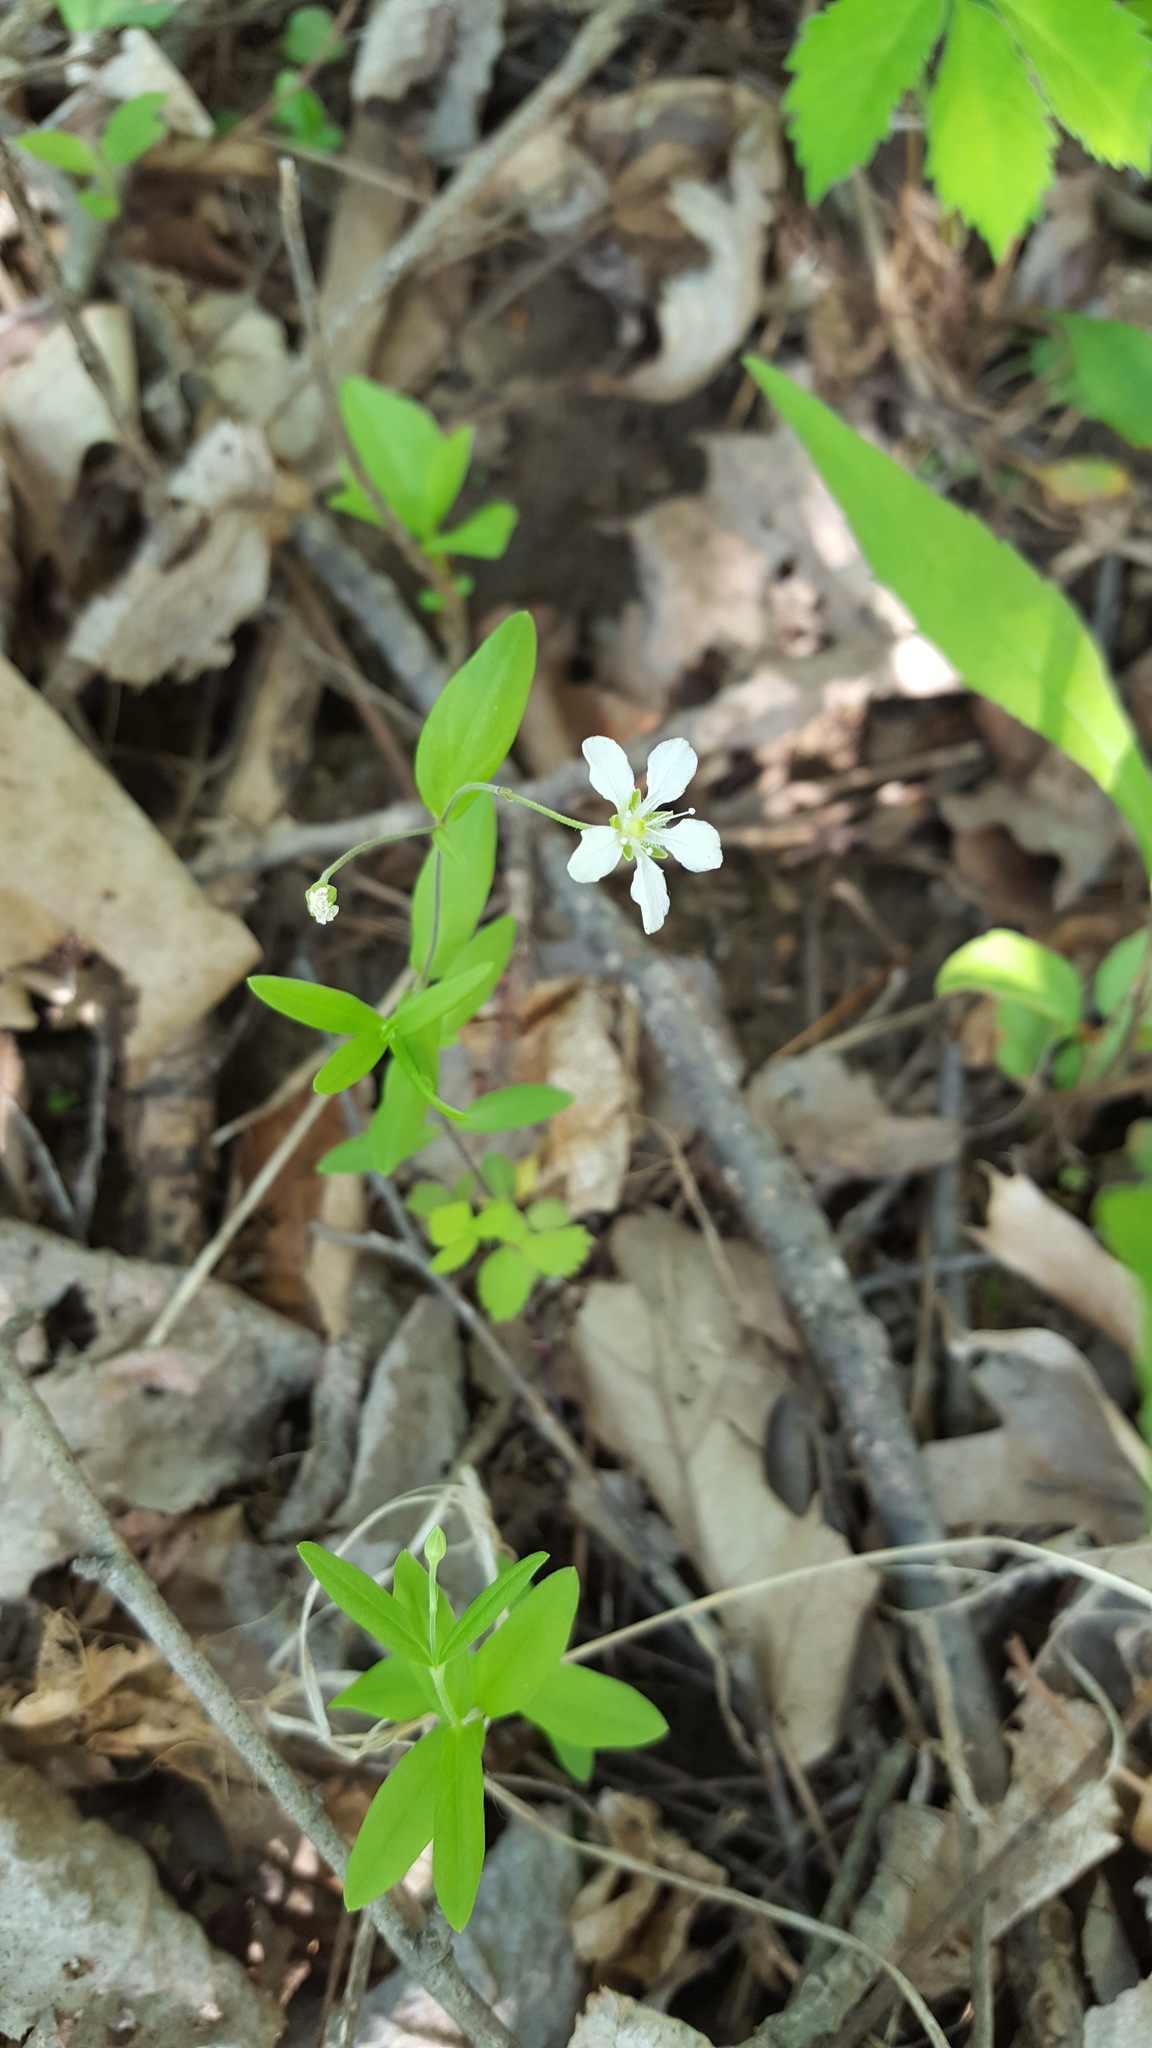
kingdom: Plantae
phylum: Tracheophyta
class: Magnoliopsida
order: Caryophyllales
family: Caryophyllaceae
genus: Moehringia
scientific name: Moehringia lateriflora
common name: Blunt-leaved sandwort
